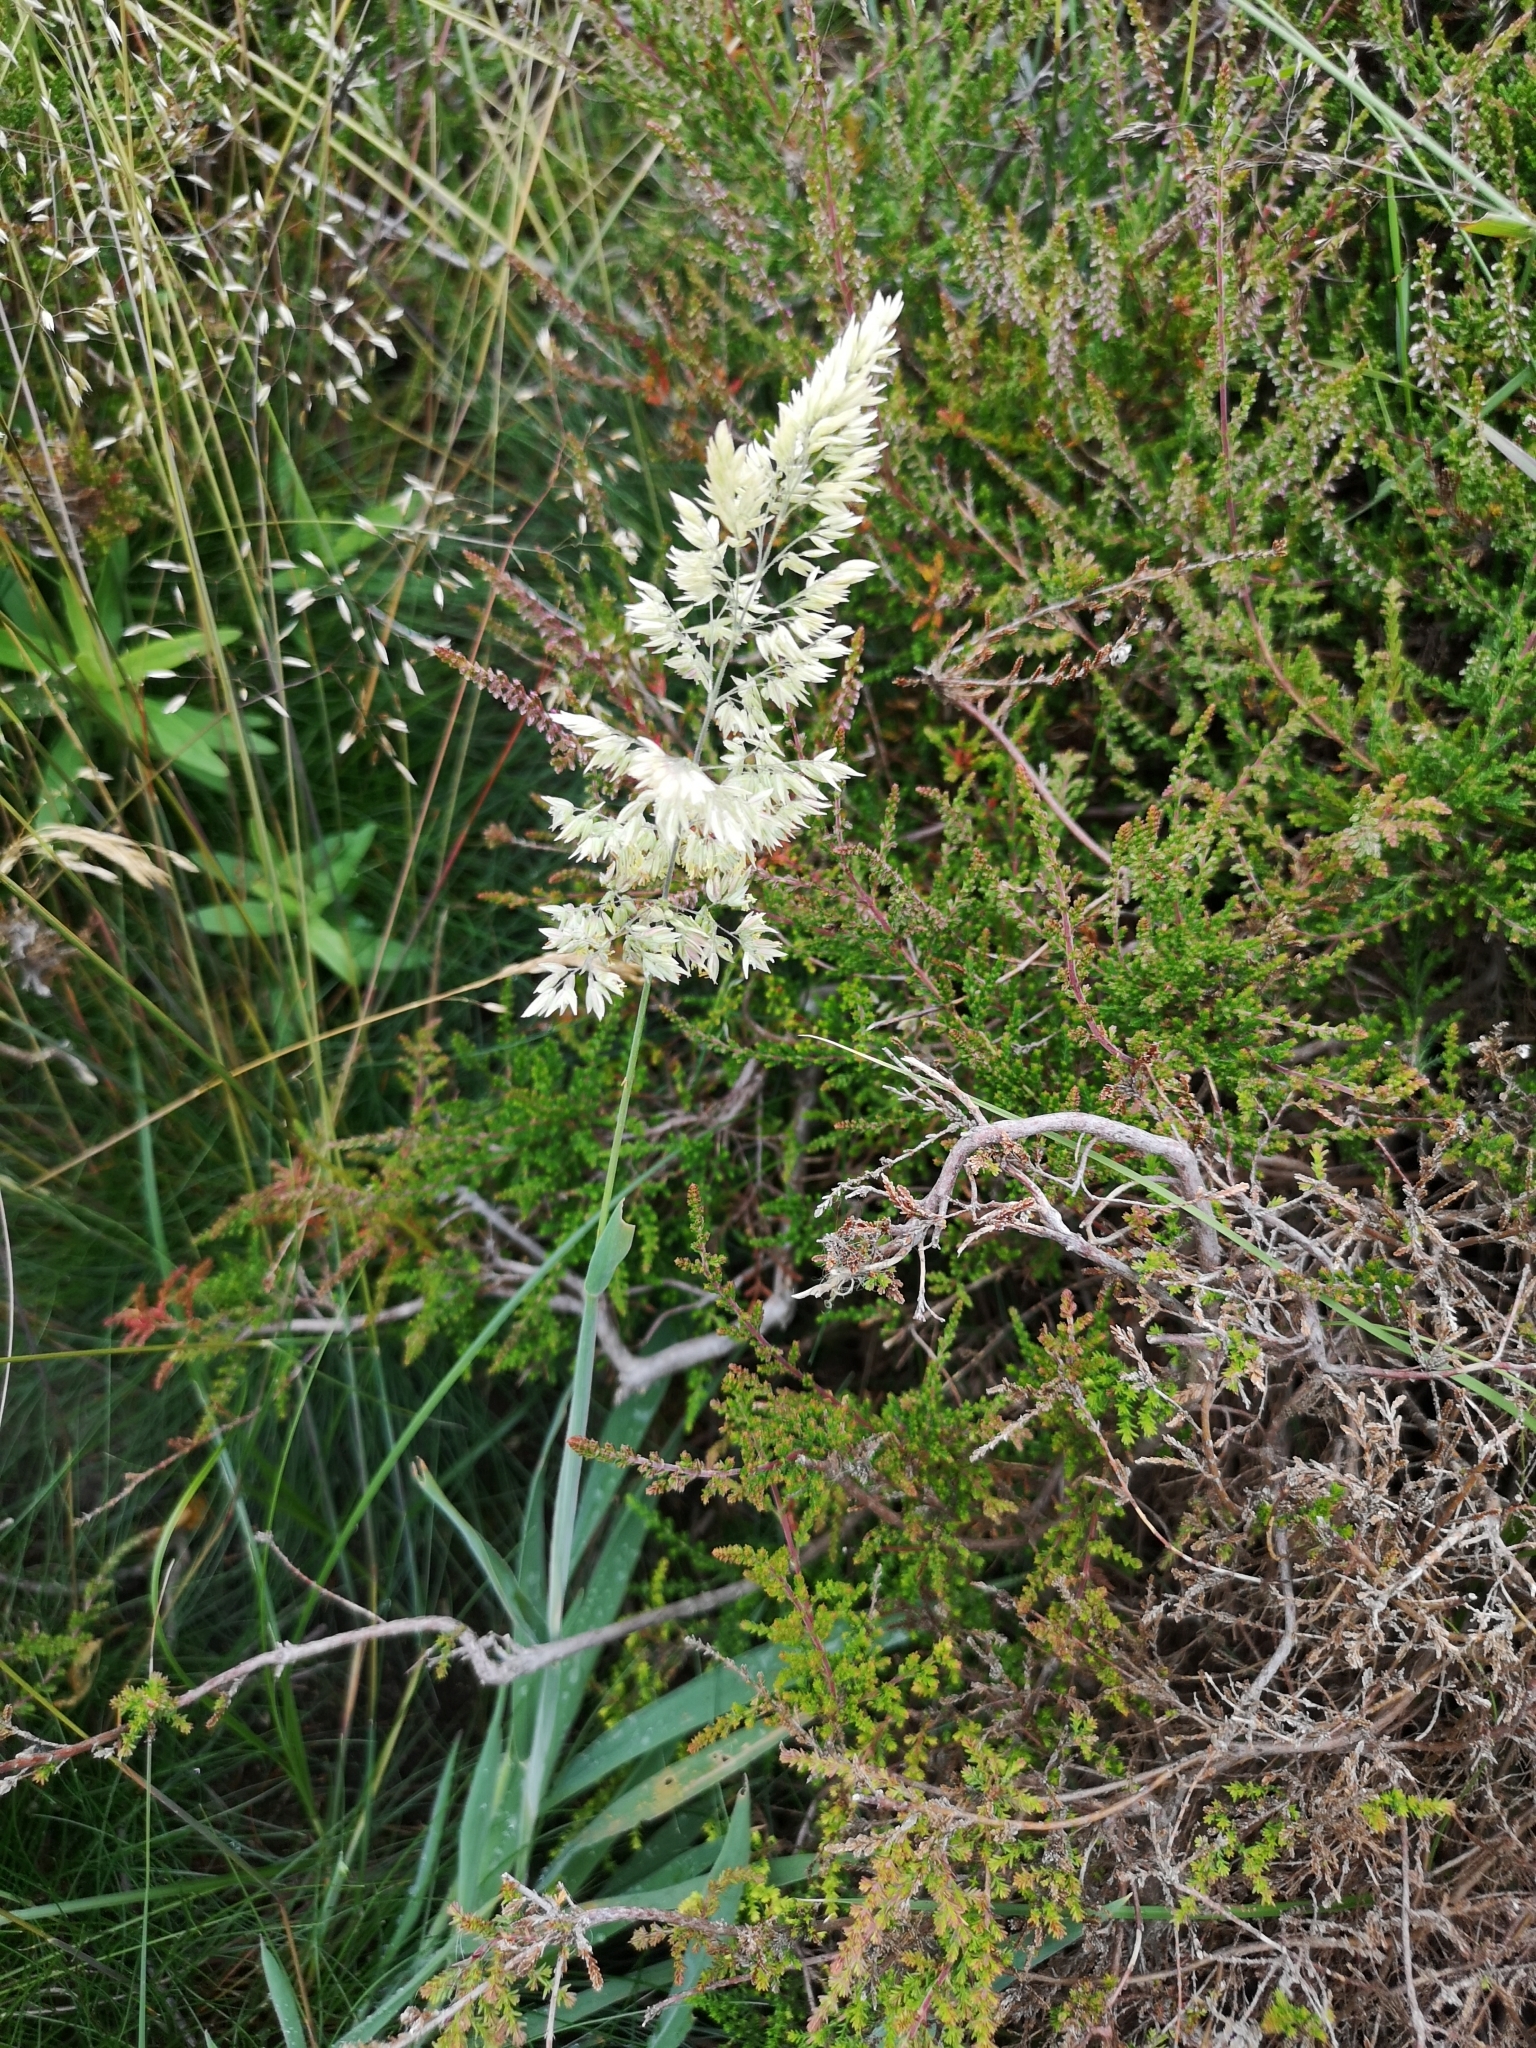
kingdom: Plantae
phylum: Tracheophyta
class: Liliopsida
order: Poales
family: Poaceae
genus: Holcus
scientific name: Holcus lanatus
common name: Yorkshire-fog
